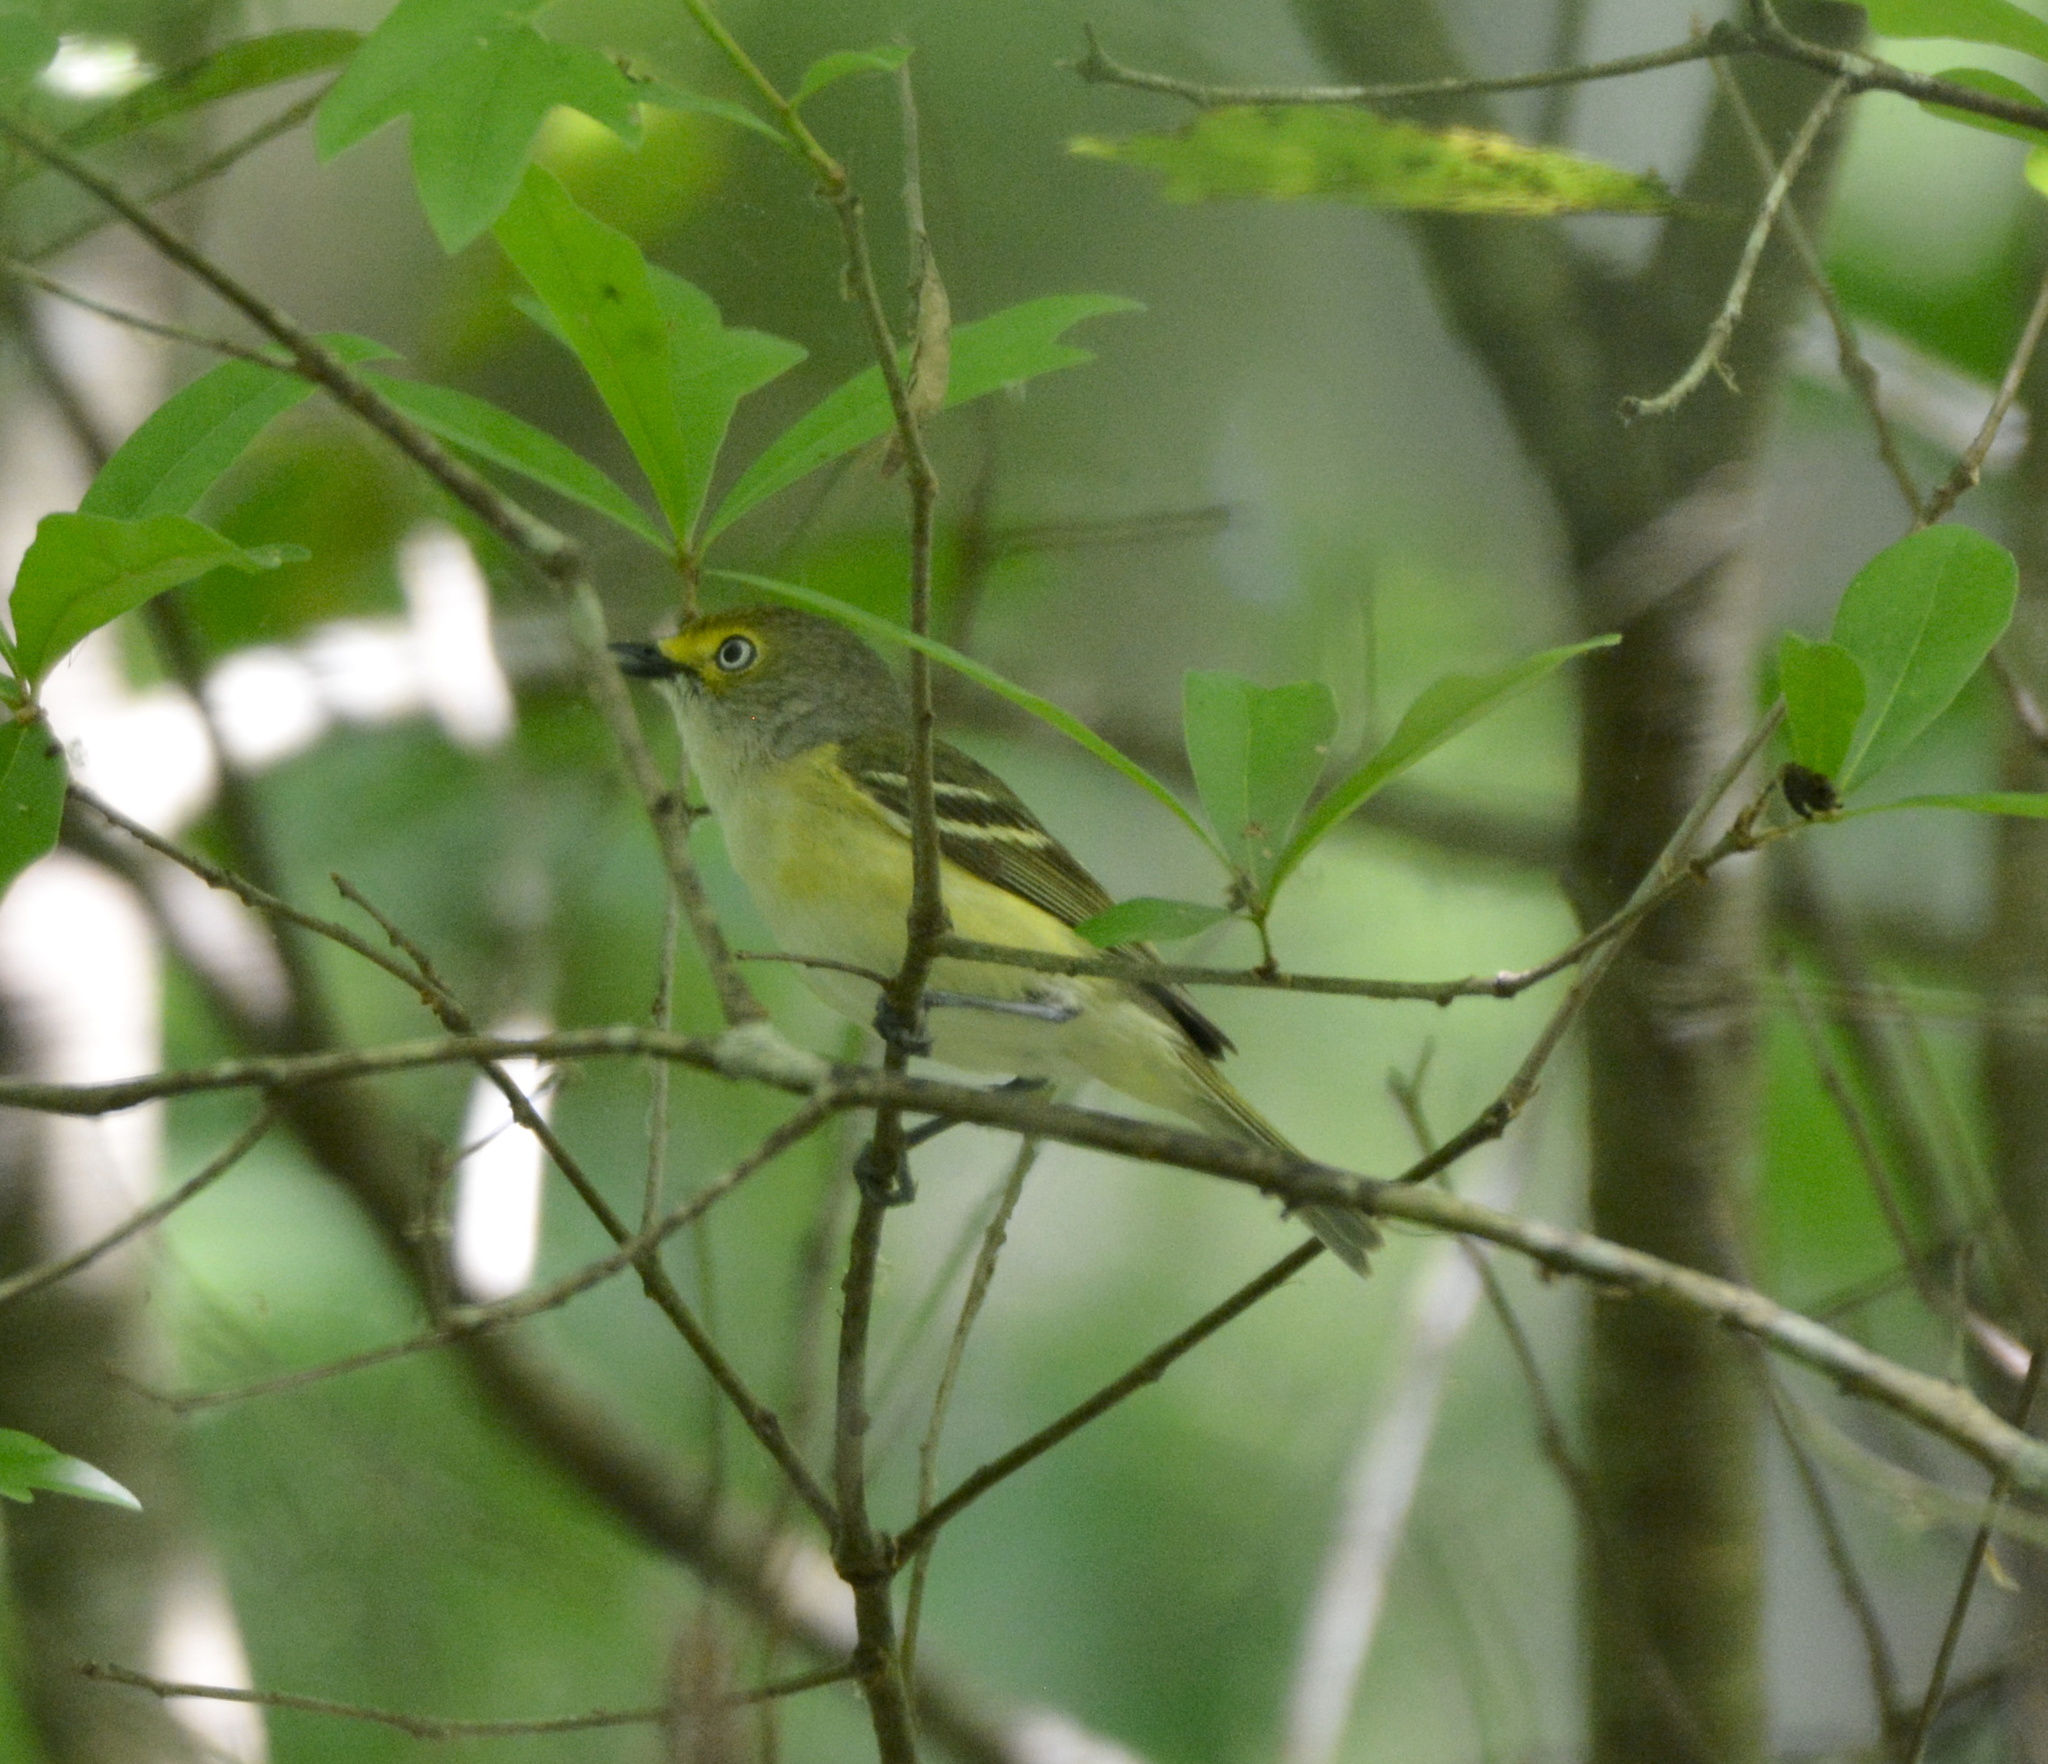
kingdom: Animalia
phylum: Chordata
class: Aves
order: Passeriformes
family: Vireonidae
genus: Vireo
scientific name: Vireo griseus
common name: White-eyed vireo
